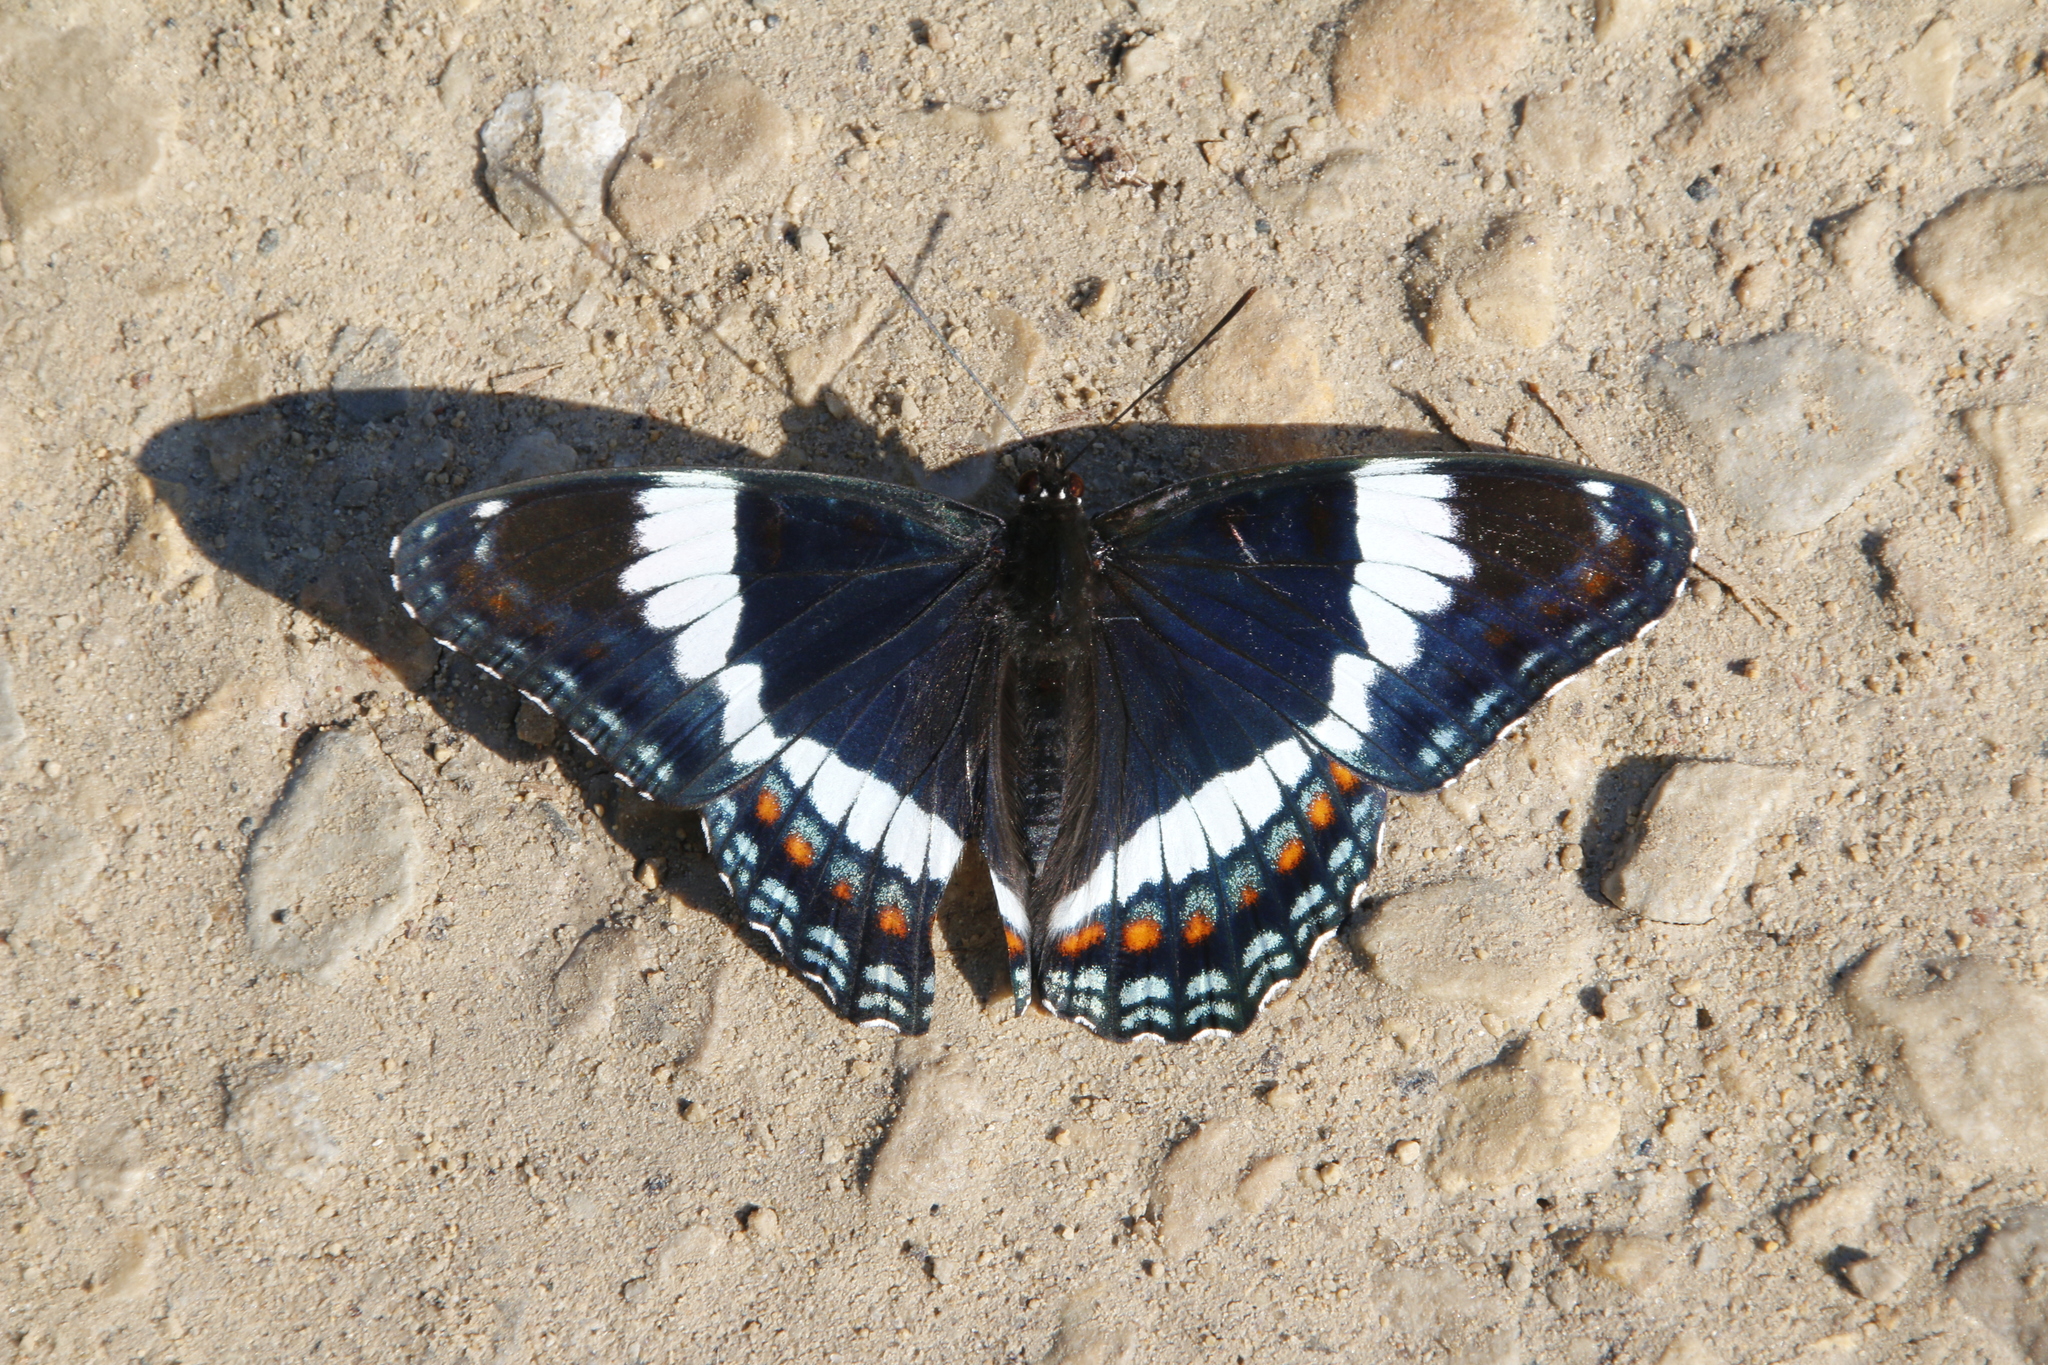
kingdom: Animalia
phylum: Arthropoda
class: Insecta
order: Lepidoptera
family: Nymphalidae
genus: Limenitis
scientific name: Limenitis arthemis
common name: Red-spotted admiral
